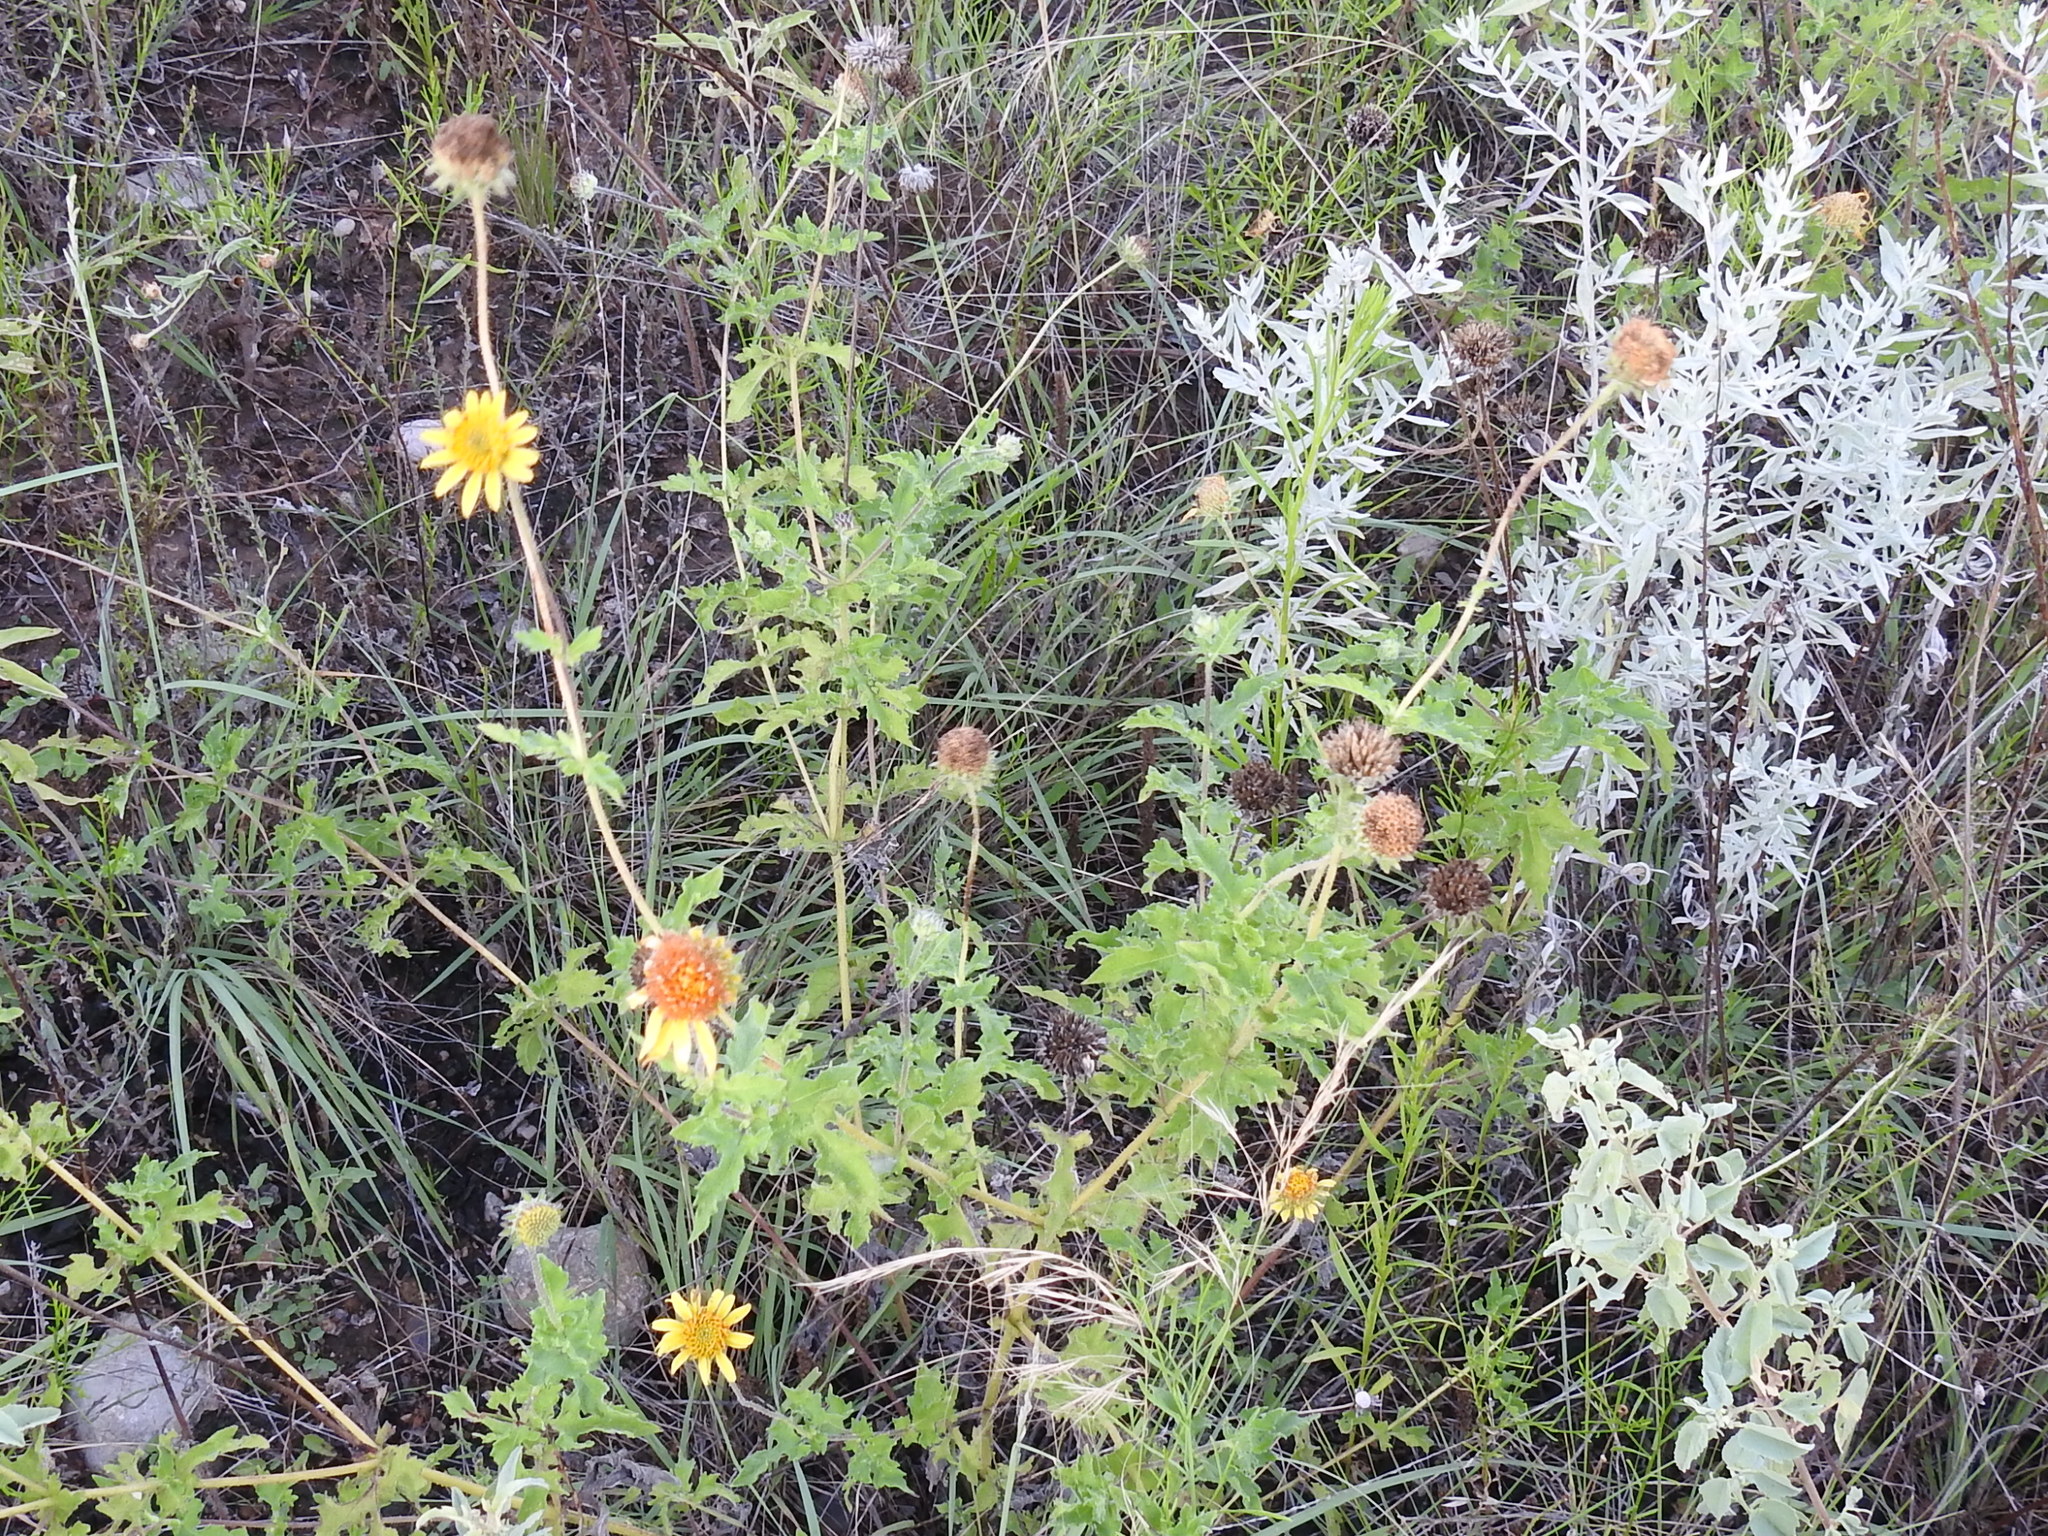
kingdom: Plantae
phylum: Tracheophyta
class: Magnoliopsida
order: Asterales
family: Asteraceae
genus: Simsia
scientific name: Simsia calva
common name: Awnless bush-sunflower
